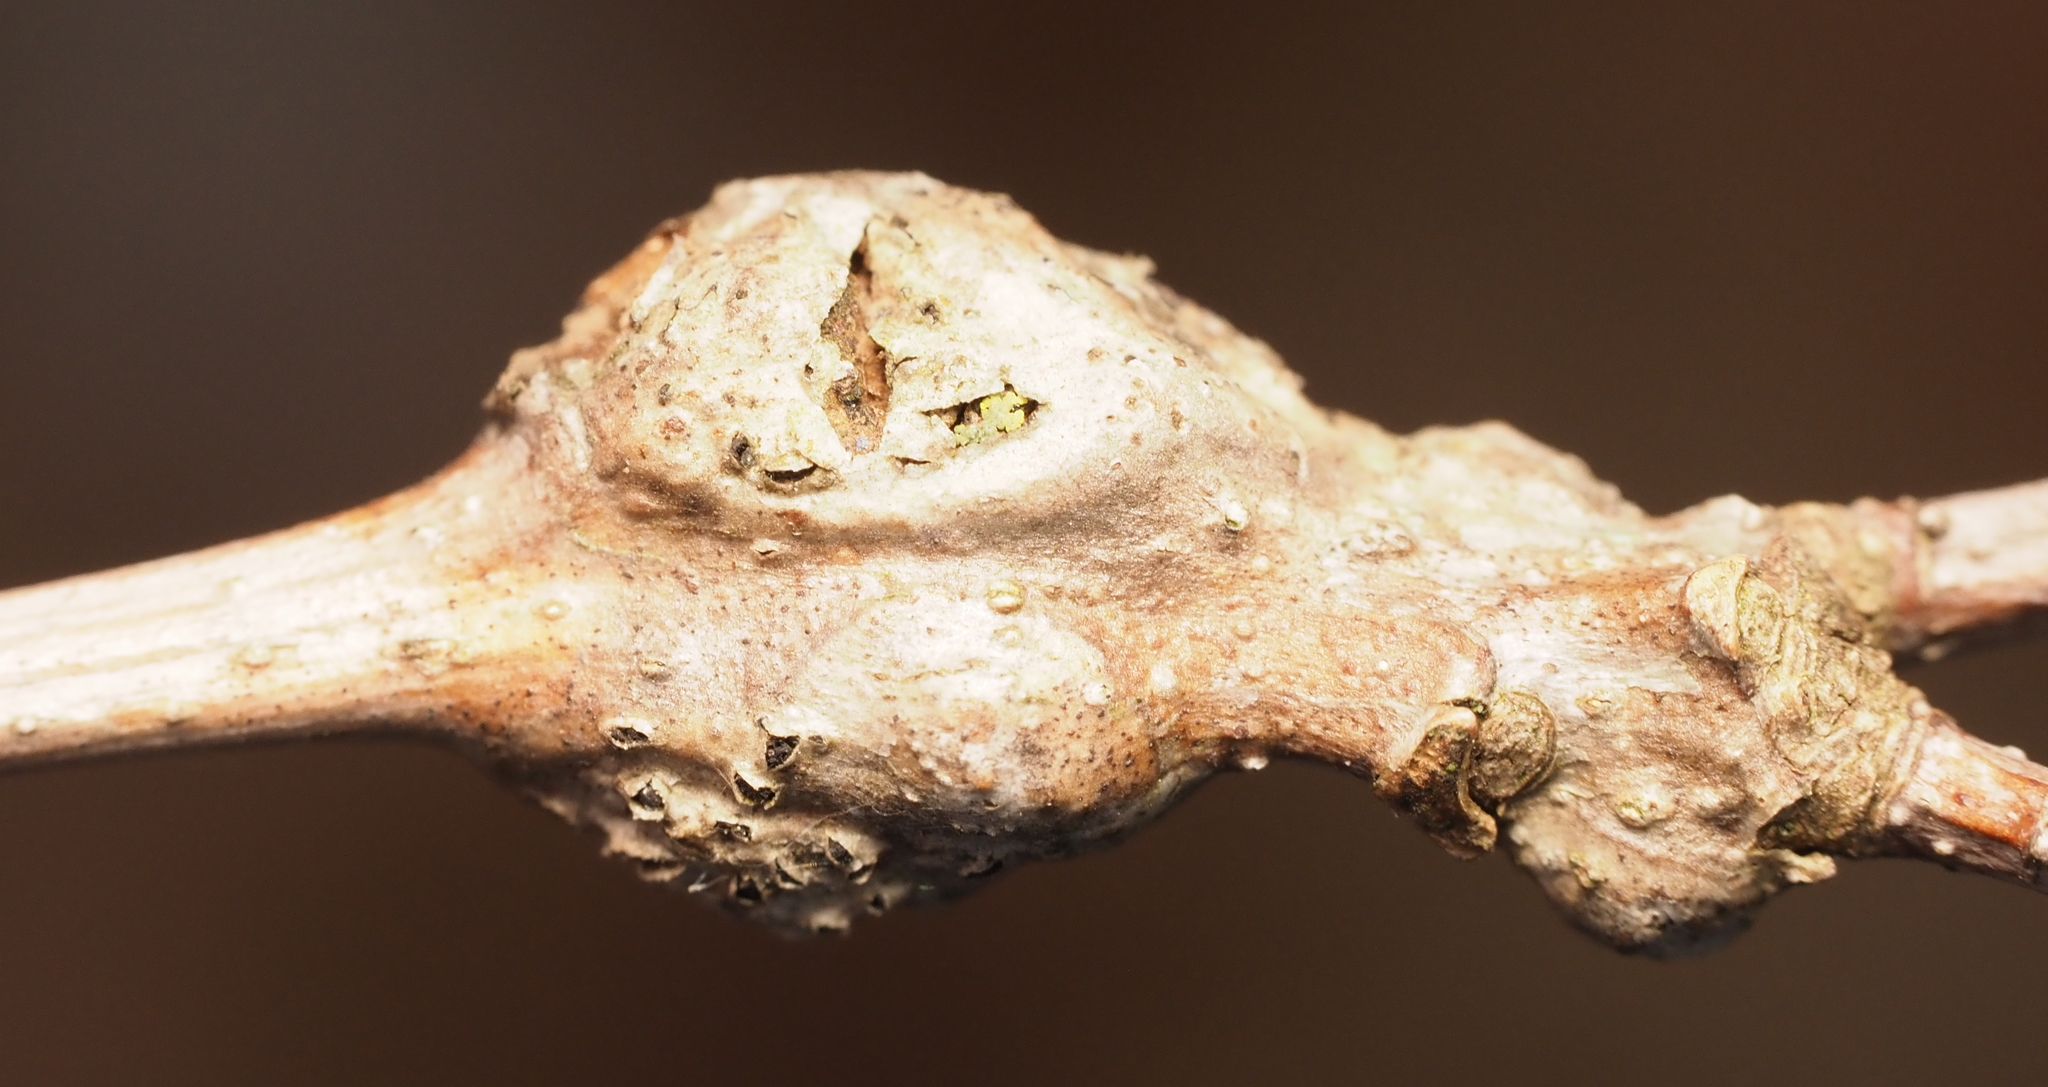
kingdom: Animalia
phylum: Arthropoda
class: Insecta
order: Hymenoptera
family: Cynipidae
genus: Neuroterus
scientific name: Neuroterus quercusbaccarum
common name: Common spangle gall
